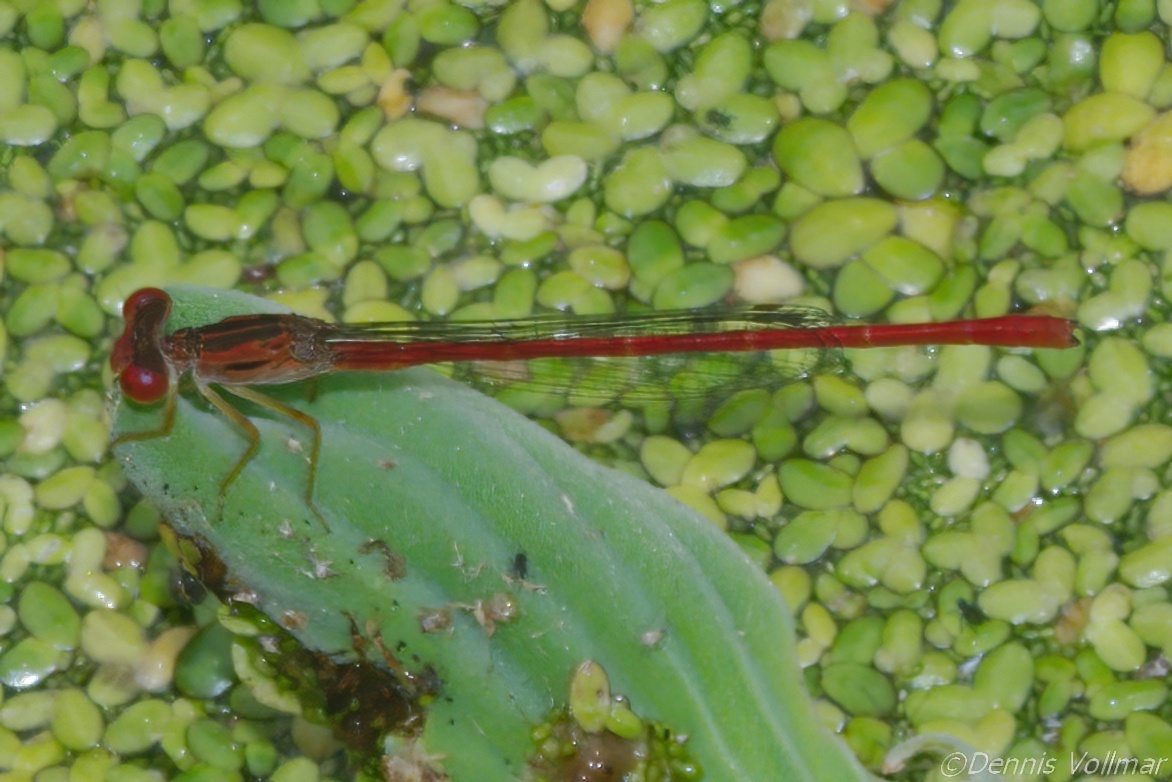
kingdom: Animalia
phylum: Arthropoda
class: Insecta
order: Odonata
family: Coenagrionidae
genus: Telebasis
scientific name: Telebasis byersi
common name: Duckweed firetail
